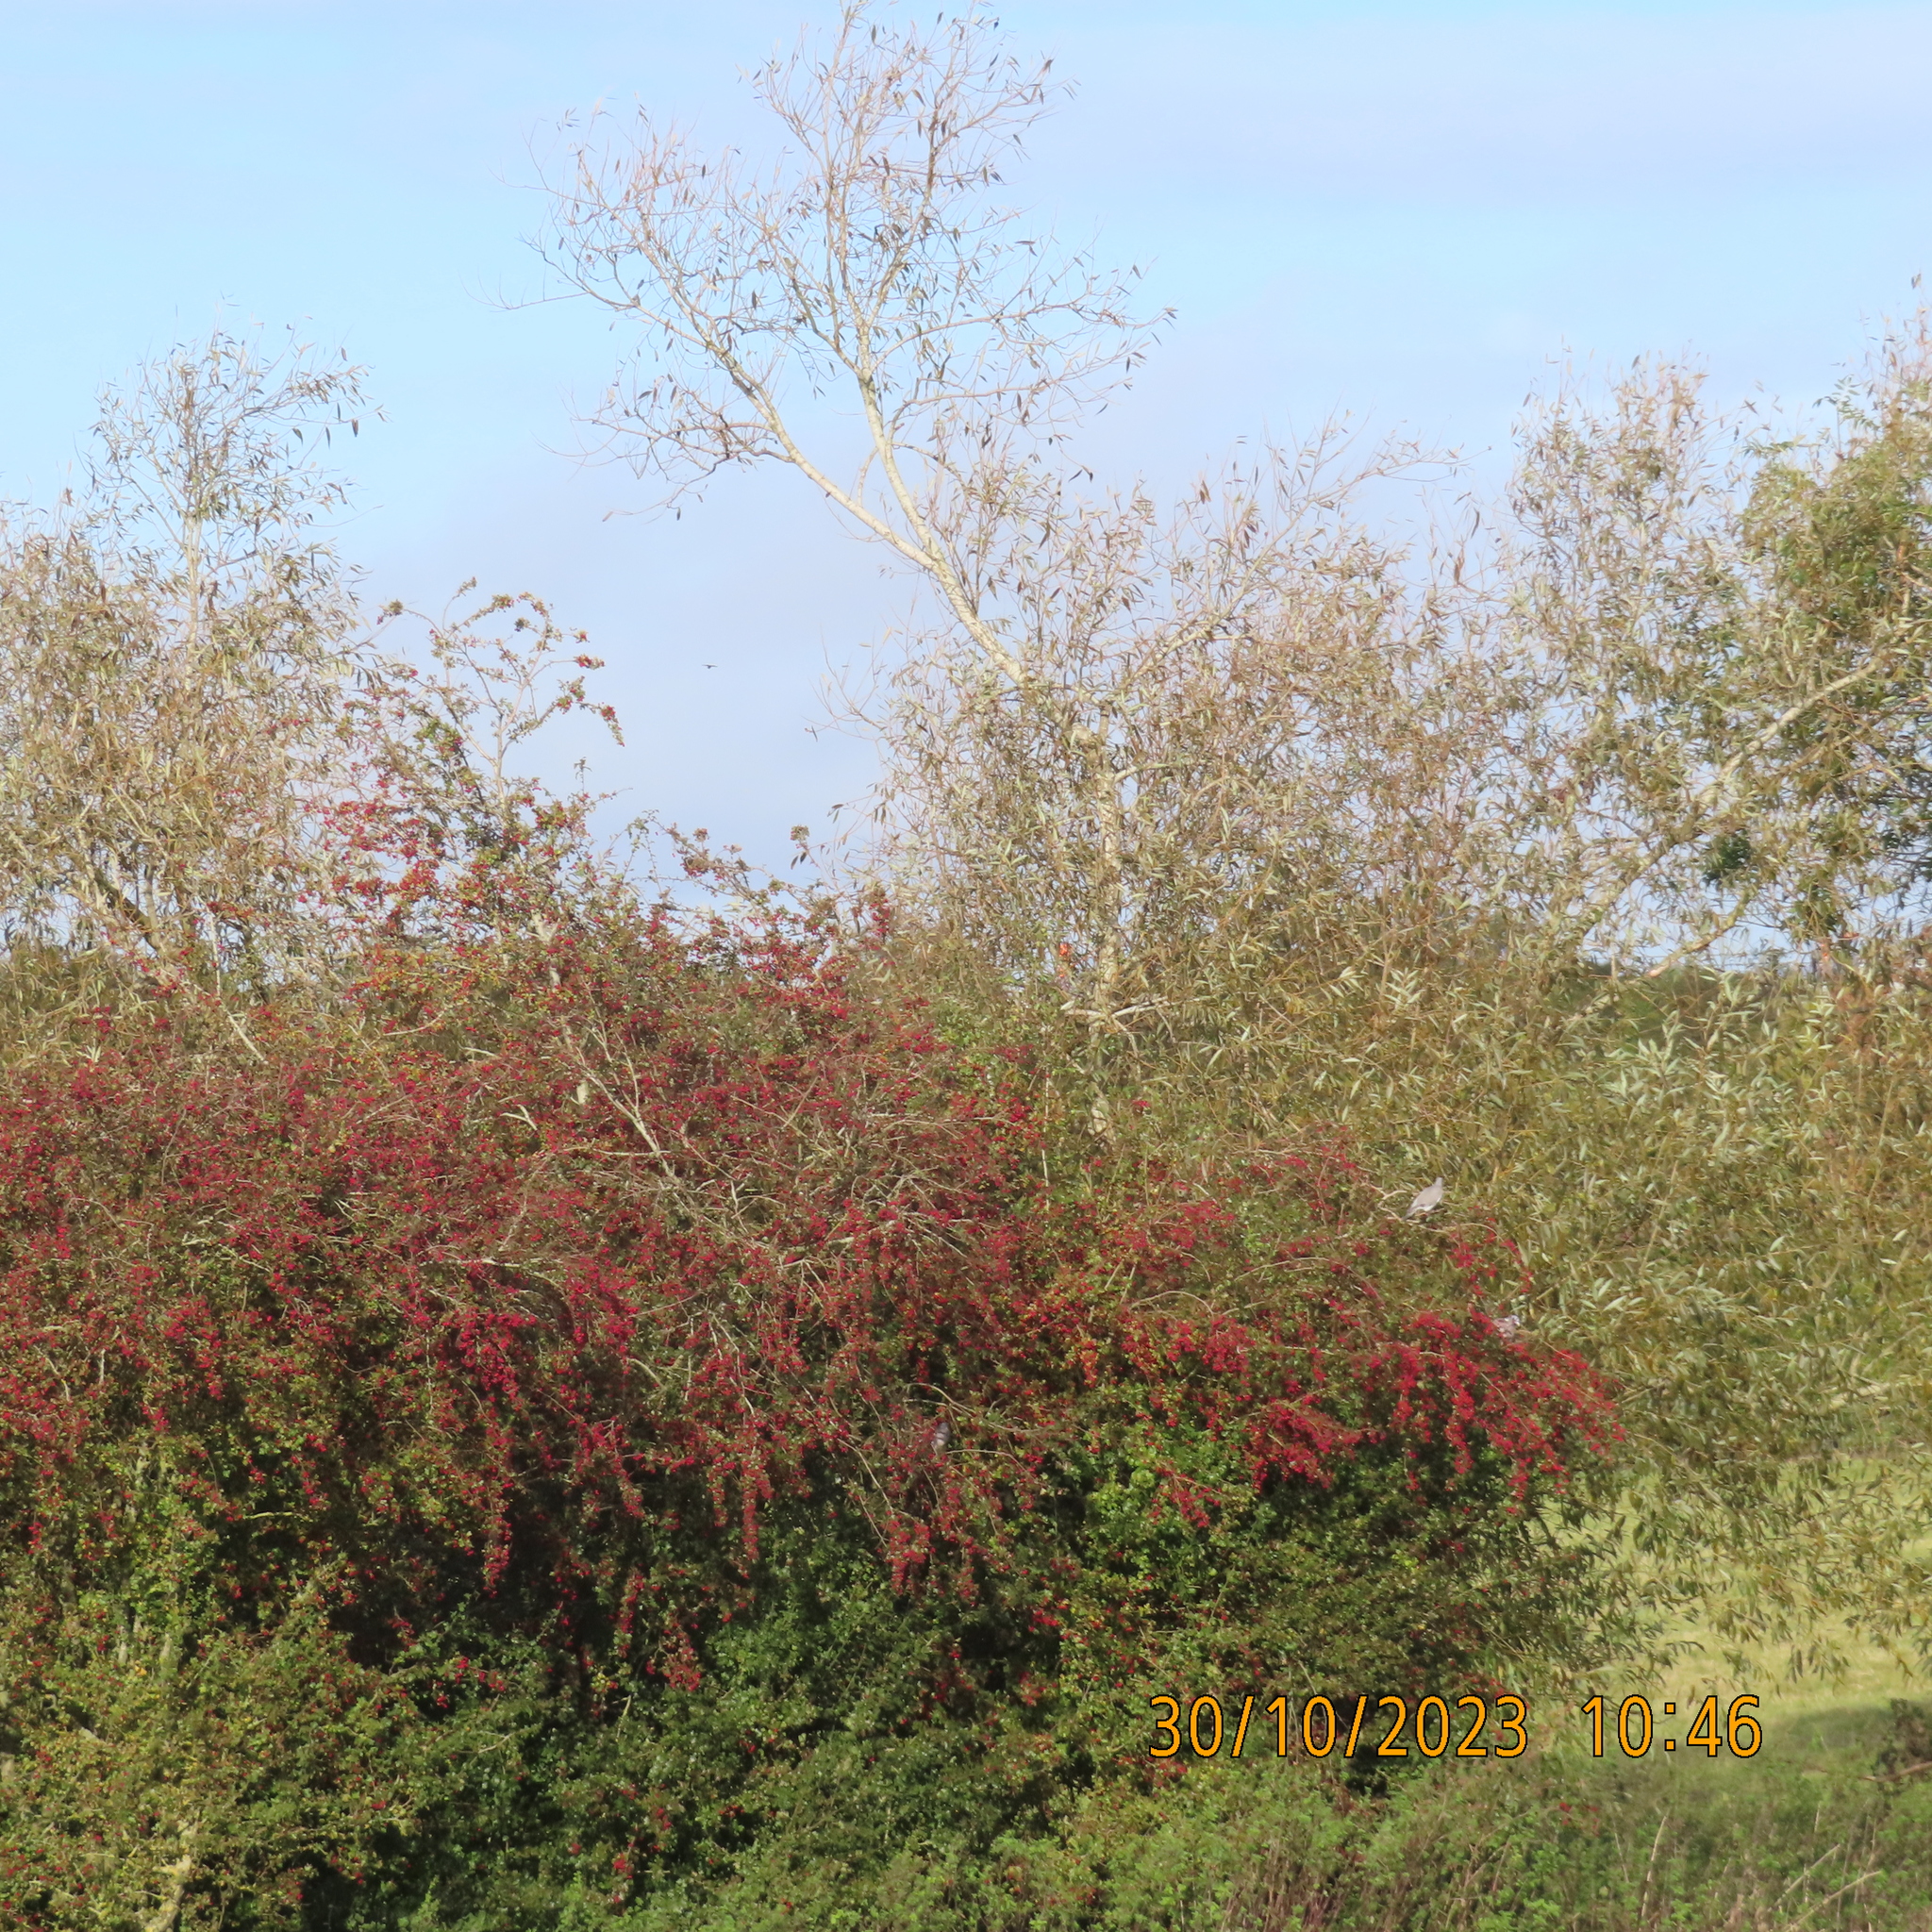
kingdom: Animalia
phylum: Chordata
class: Aves
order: Columbiformes
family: Columbidae
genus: Columba
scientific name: Columba palumbus
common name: Common wood pigeon
